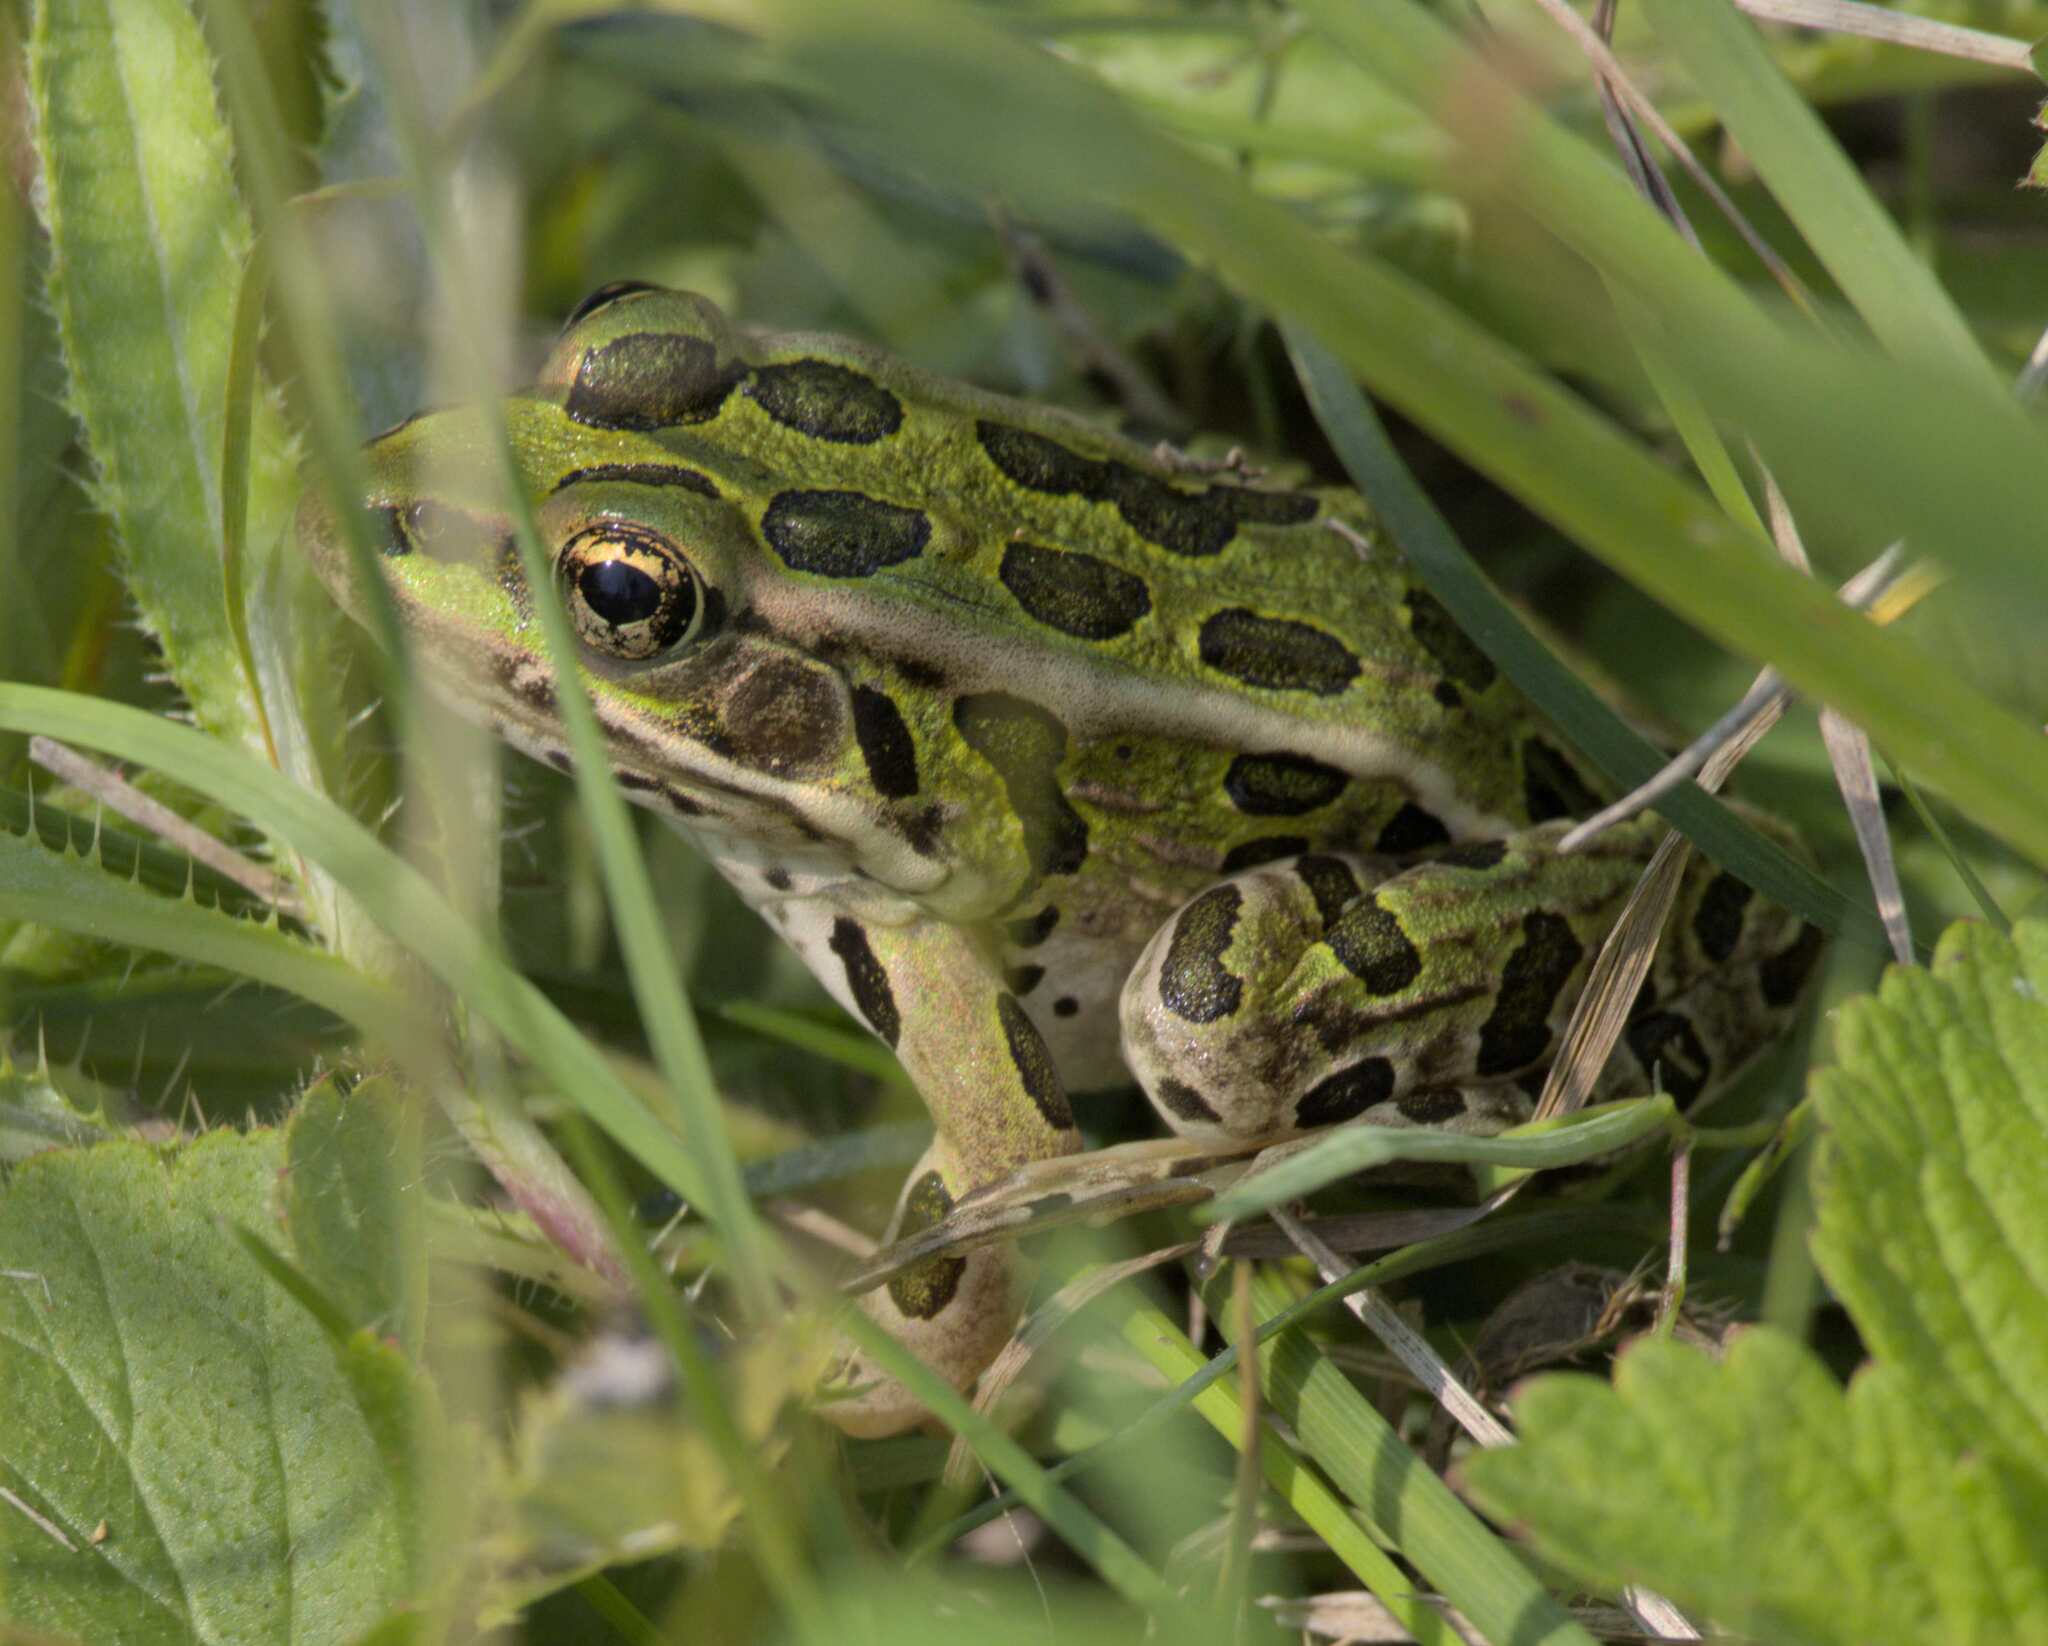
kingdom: Animalia
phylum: Chordata
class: Amphibia
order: Anura
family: Ranidae
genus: Lithobates
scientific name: Lithobates pipiens
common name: Northern leopard frog
